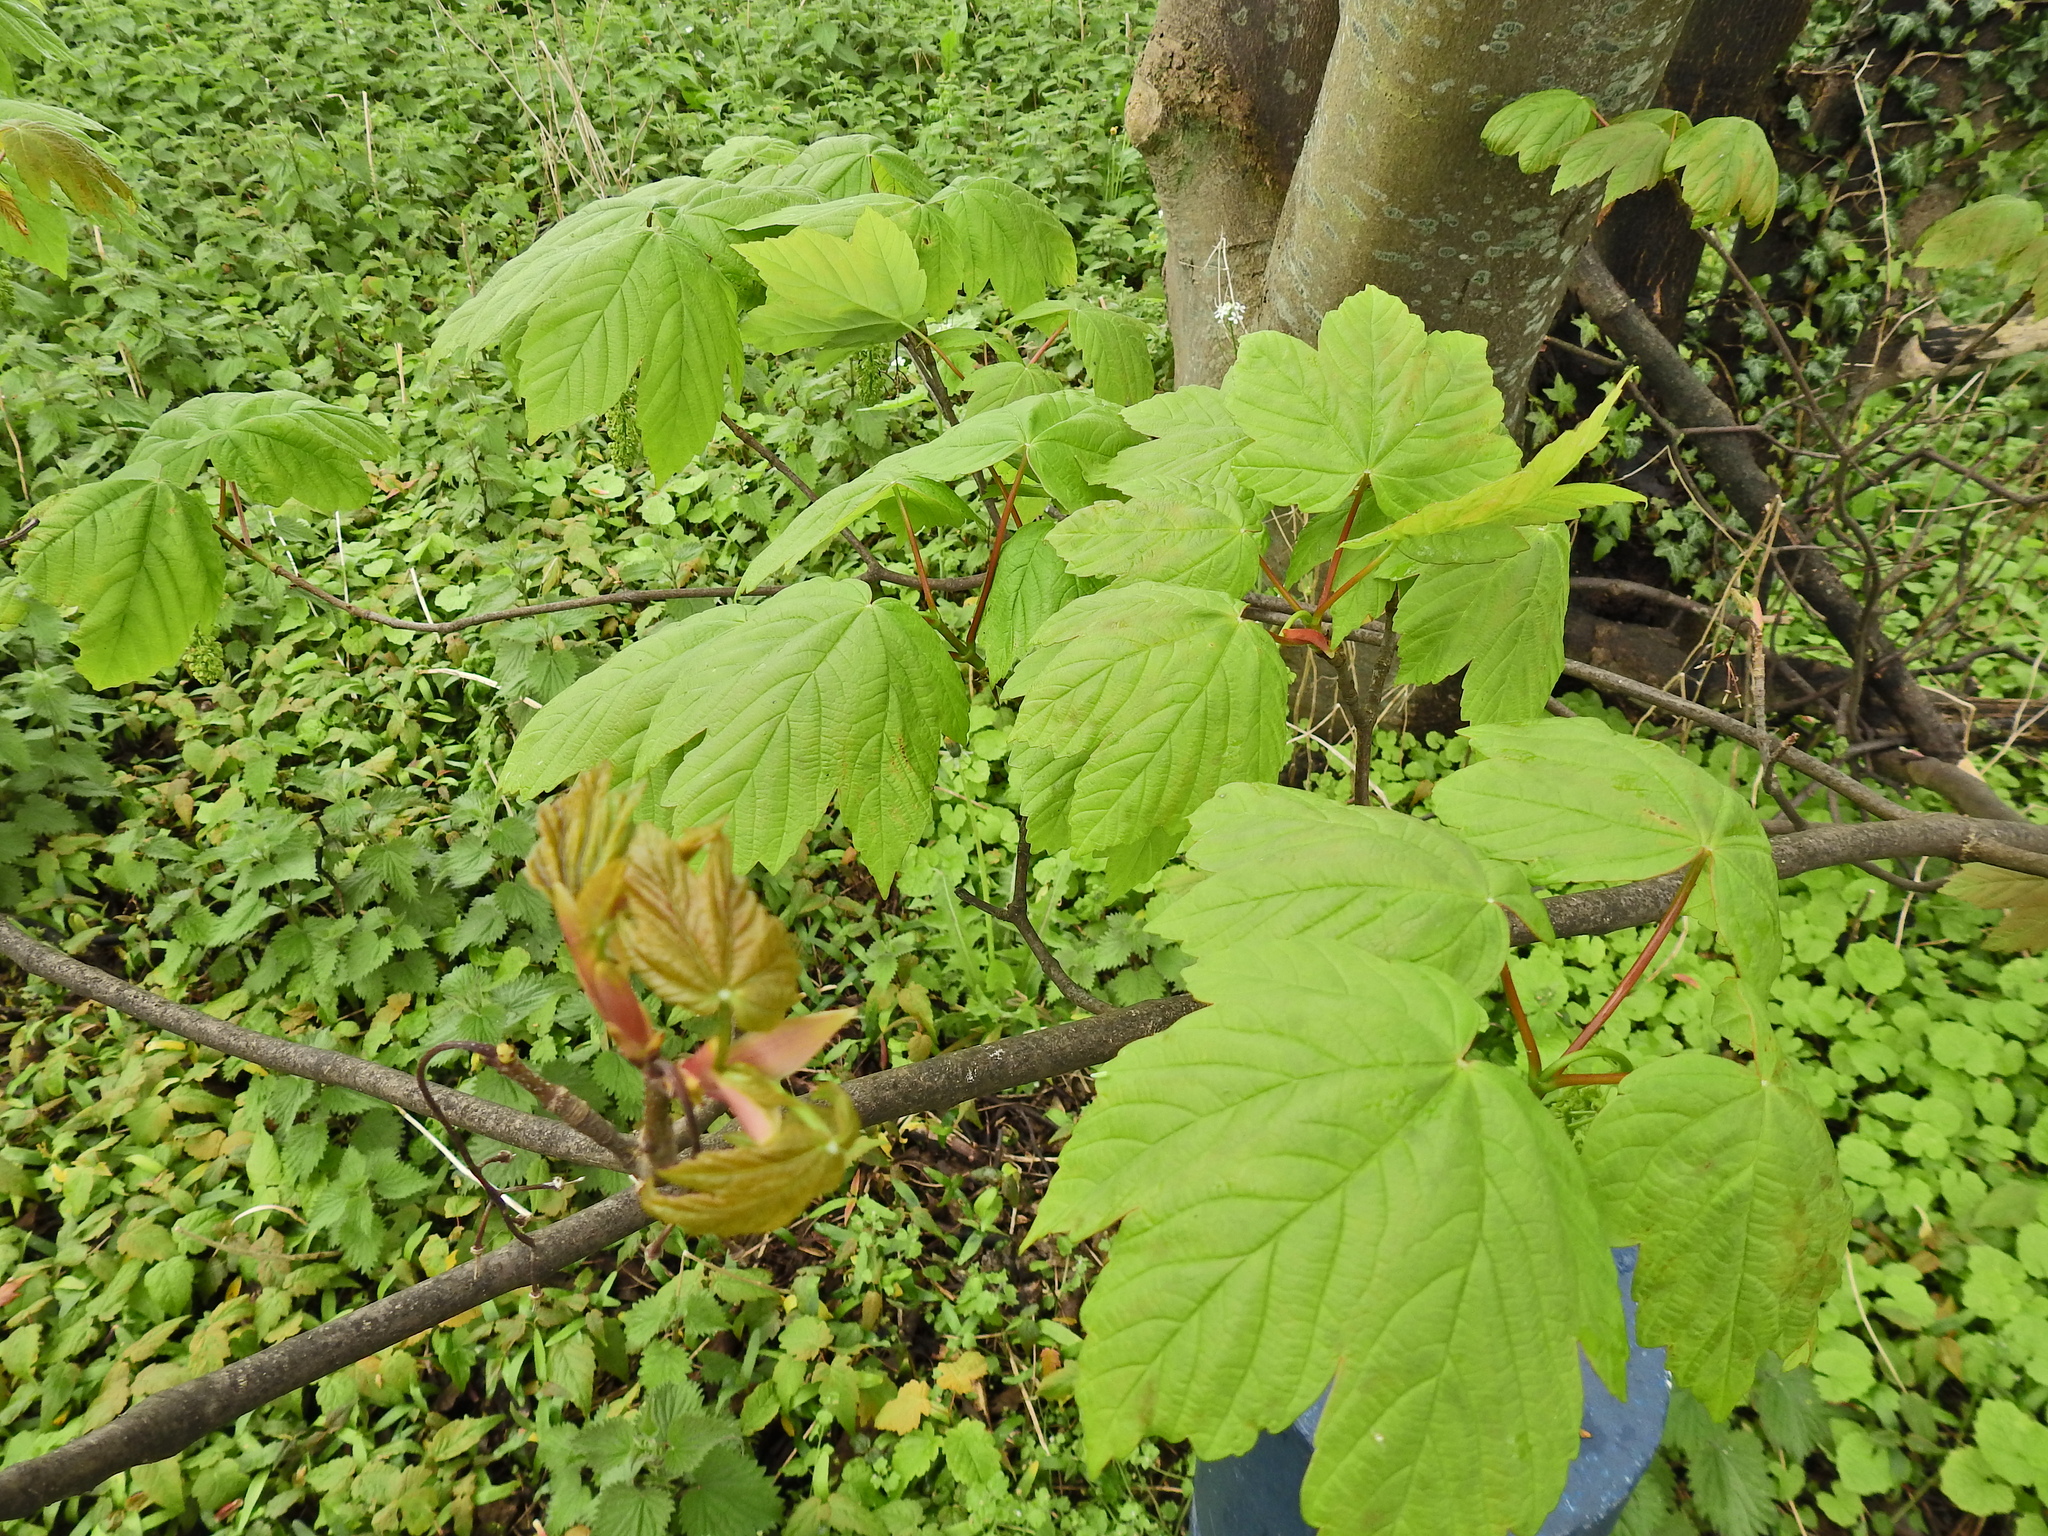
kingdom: Plantae
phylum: Tracheophyta
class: Magnoliopsida
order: Sapindales
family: Sapindaceae
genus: Acer
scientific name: Acer pseudoplatanus
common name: Sycamore
